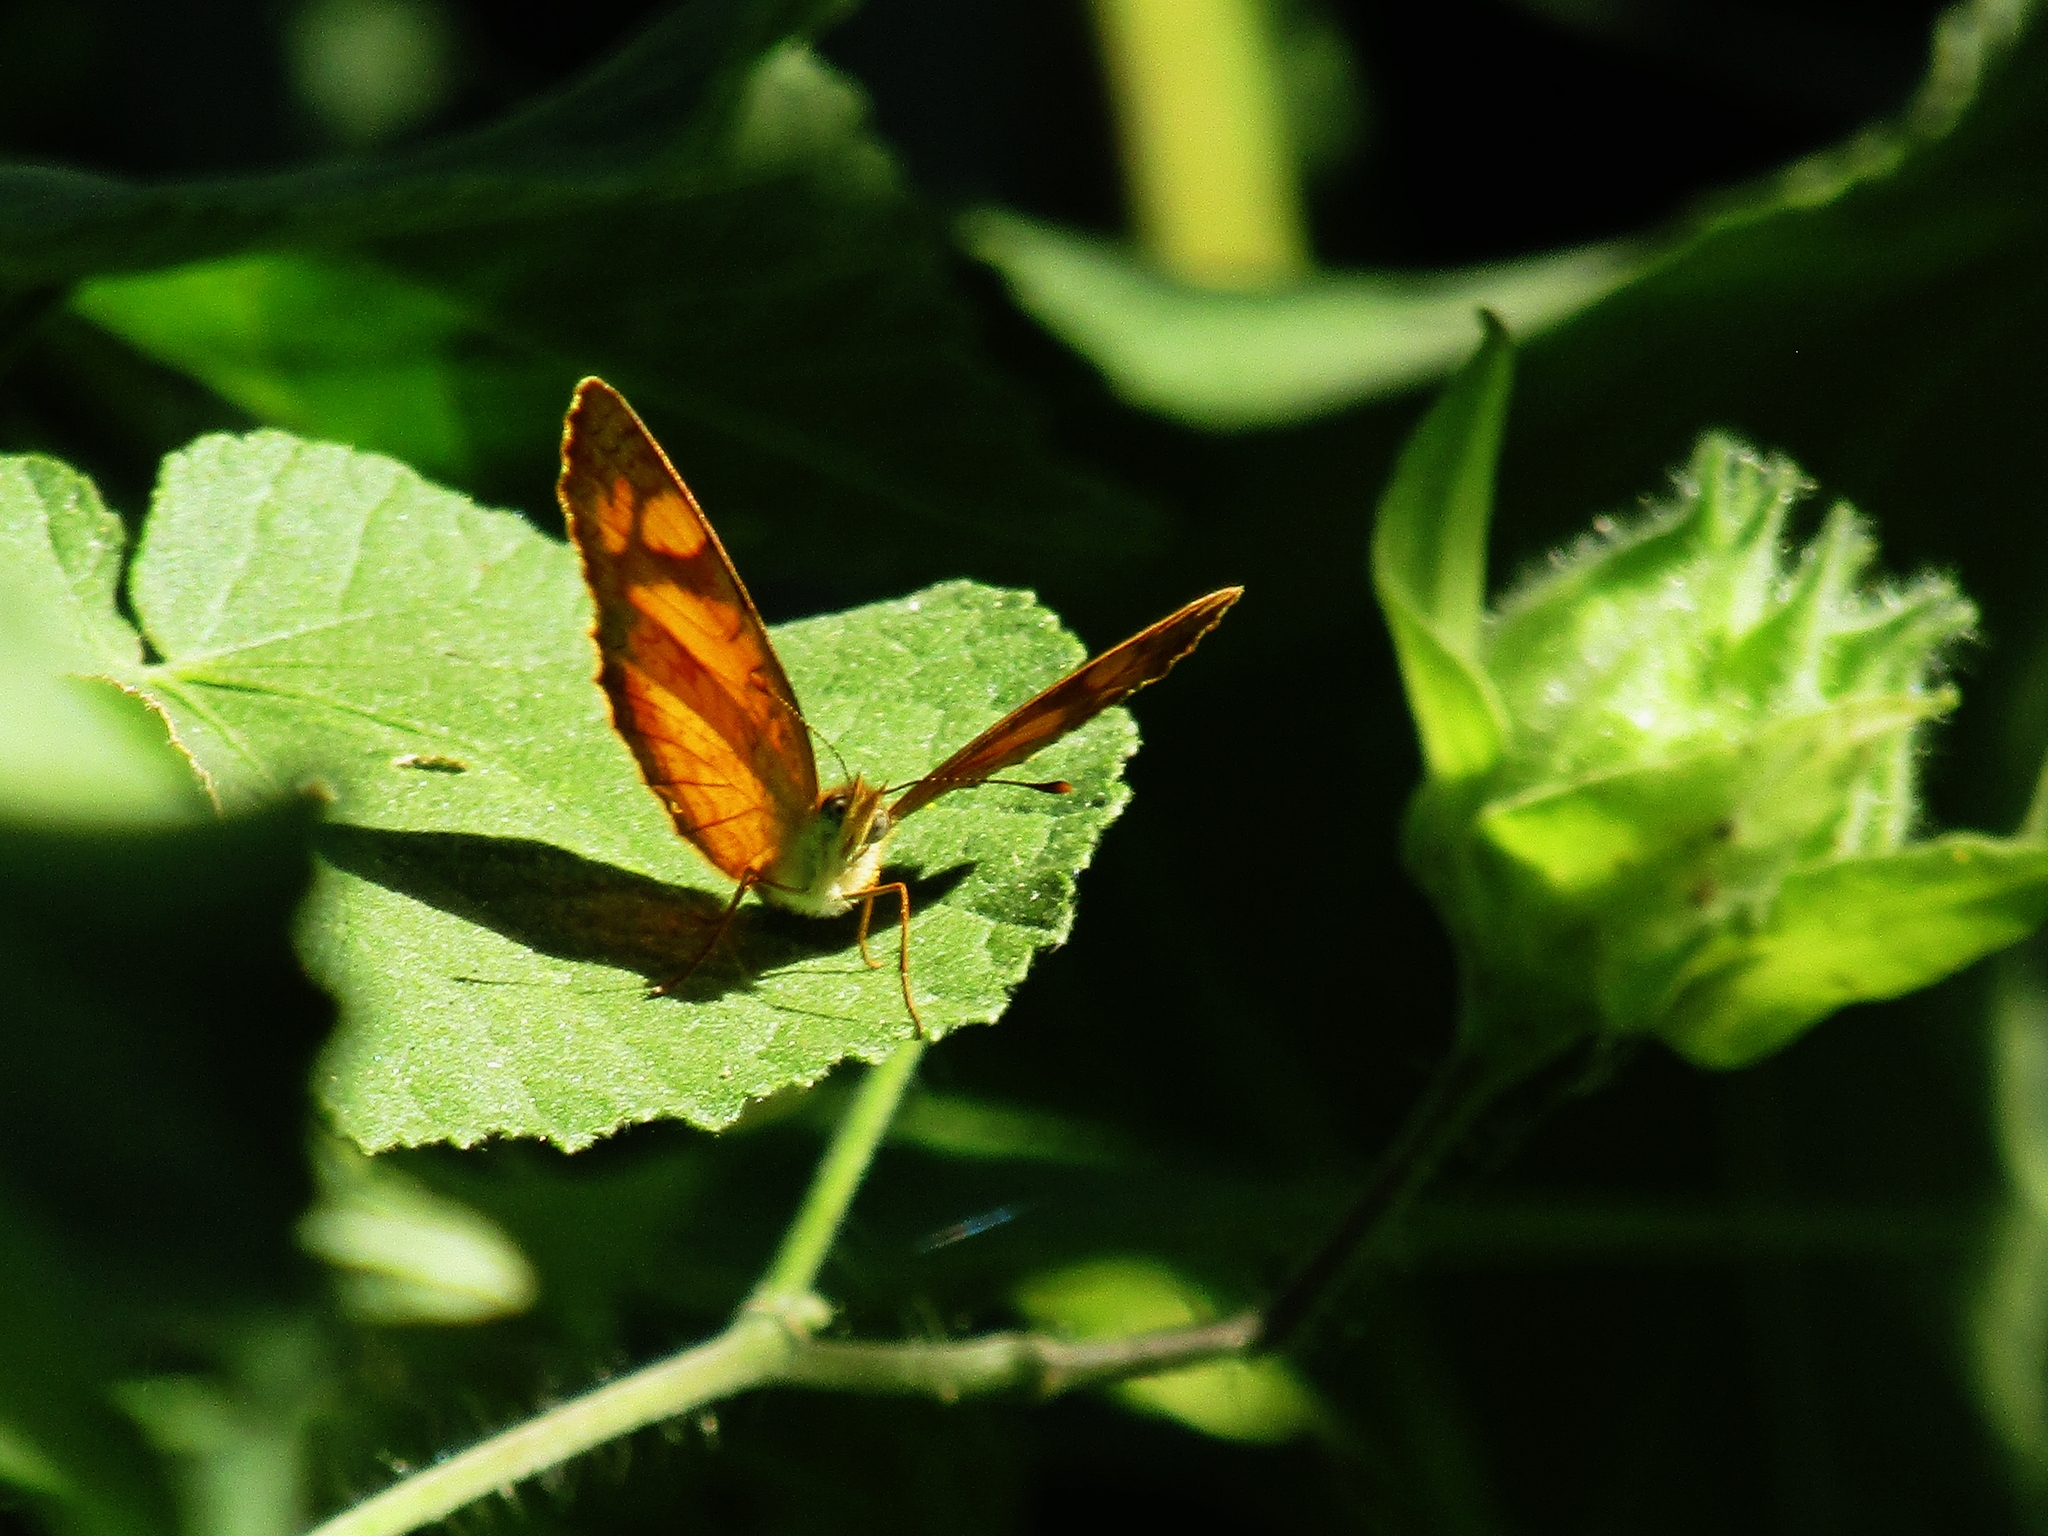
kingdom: Animalia
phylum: Arthropoda
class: Insecta
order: Lepidoptera
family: Nymphalidae
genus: Tegosa
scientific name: Tegosa claudina
